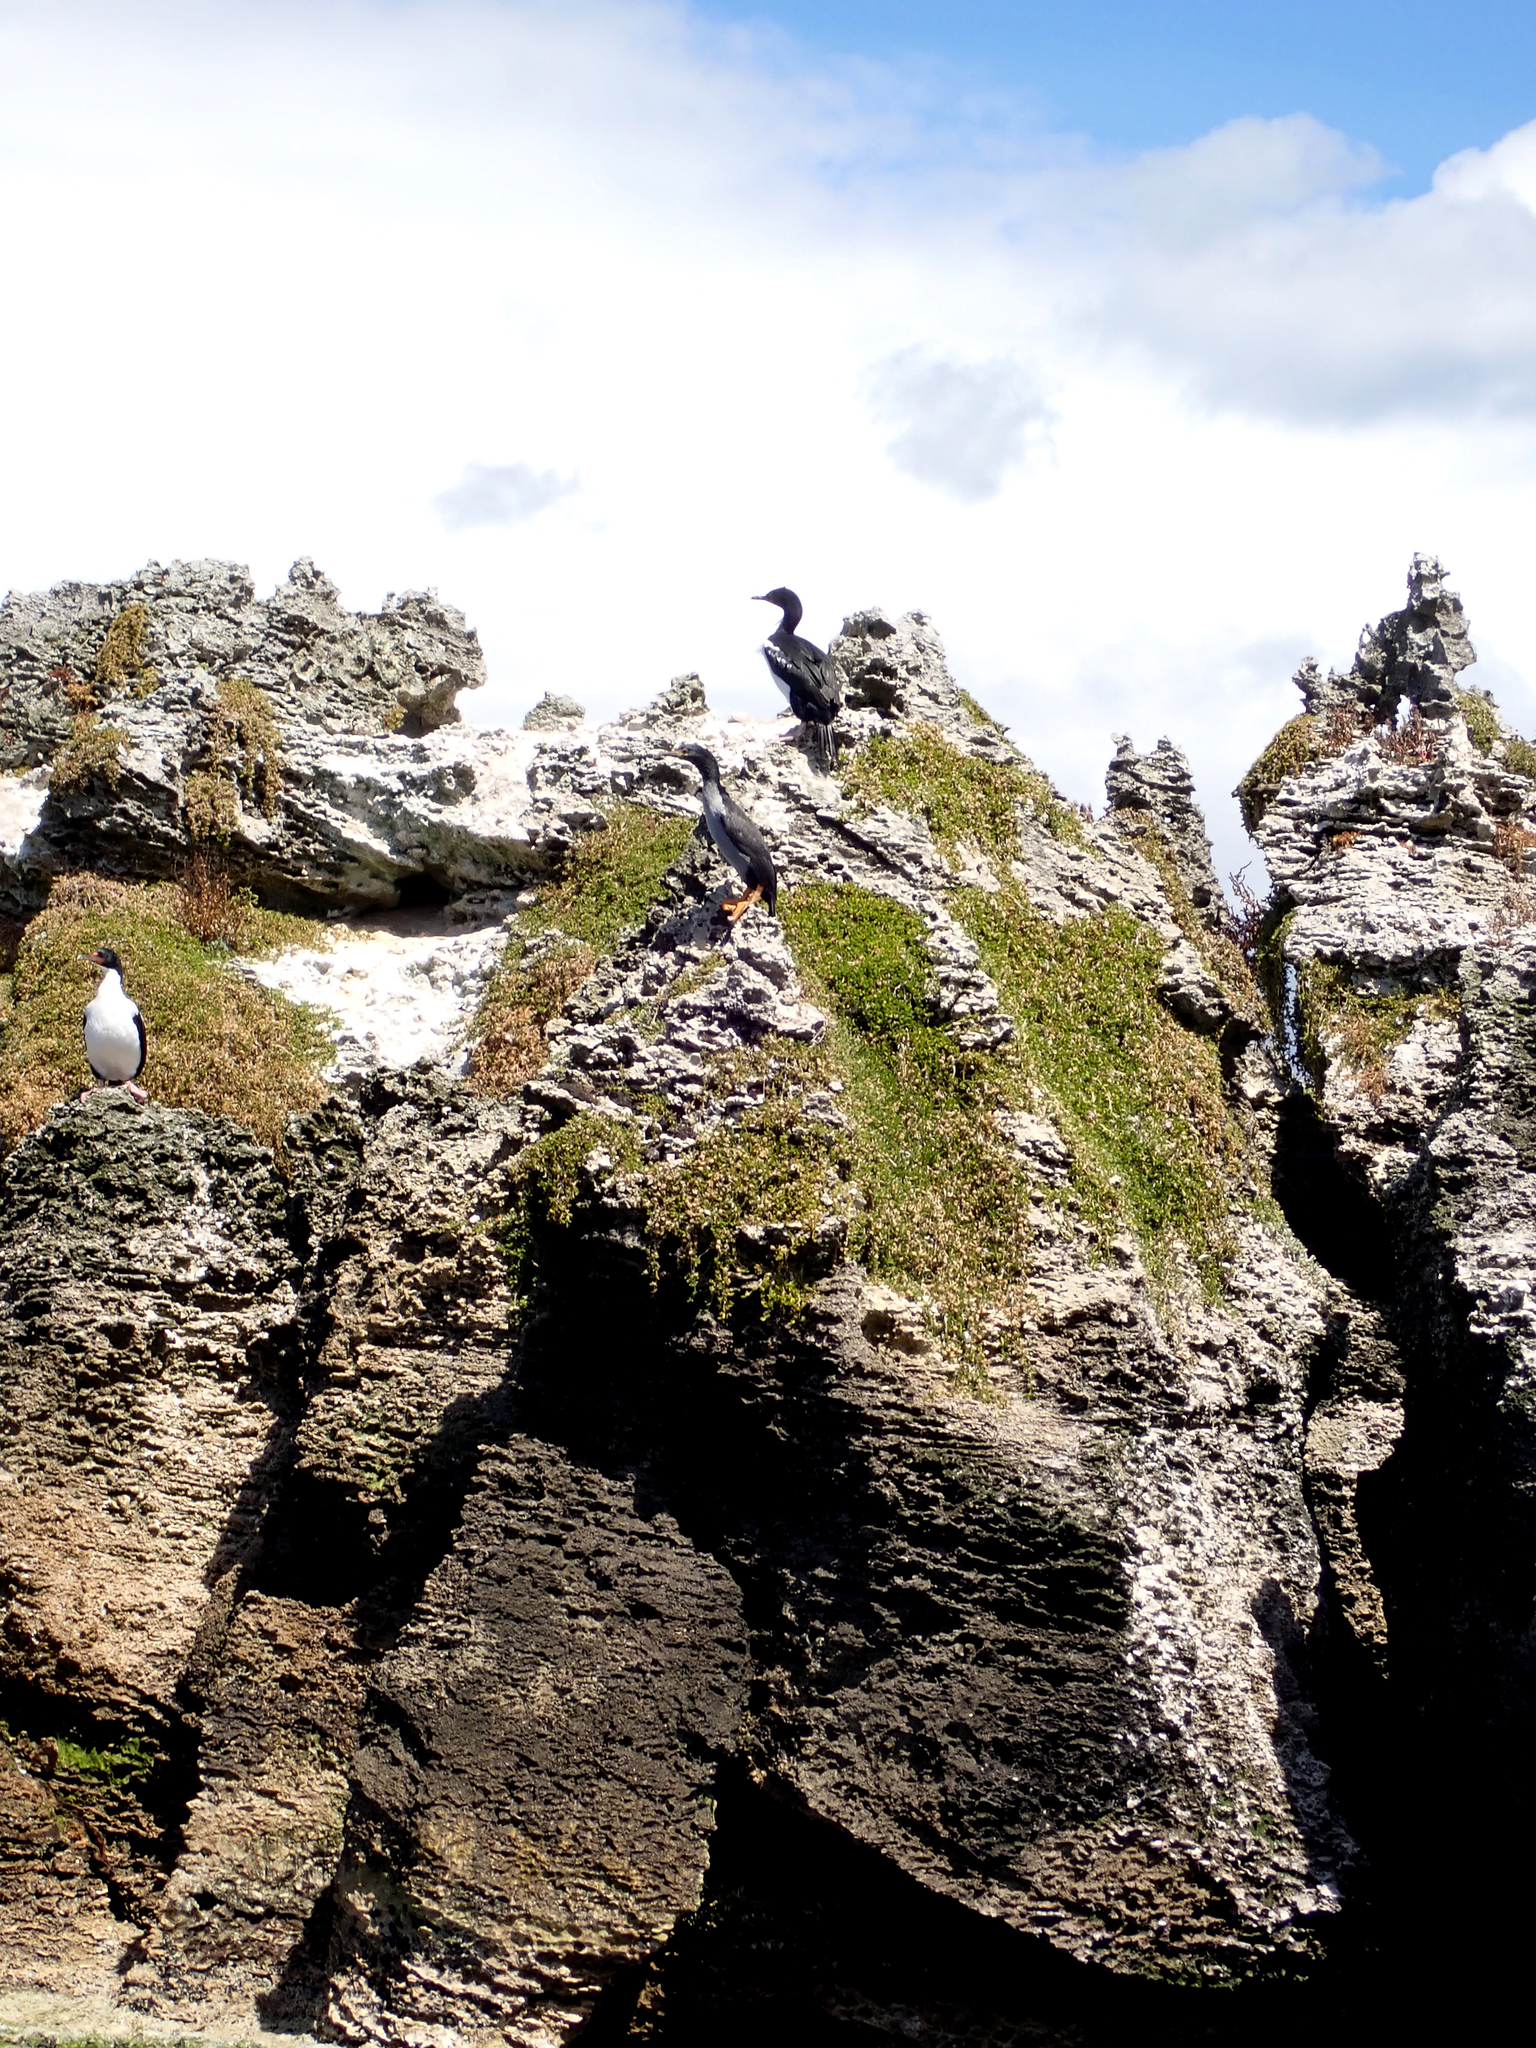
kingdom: Animalia
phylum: Chordata
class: Aves
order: Suliformes
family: Phalacrocoracidae
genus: Leucocarbo
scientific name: Leucocarbo onslowi
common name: Chatham shag
